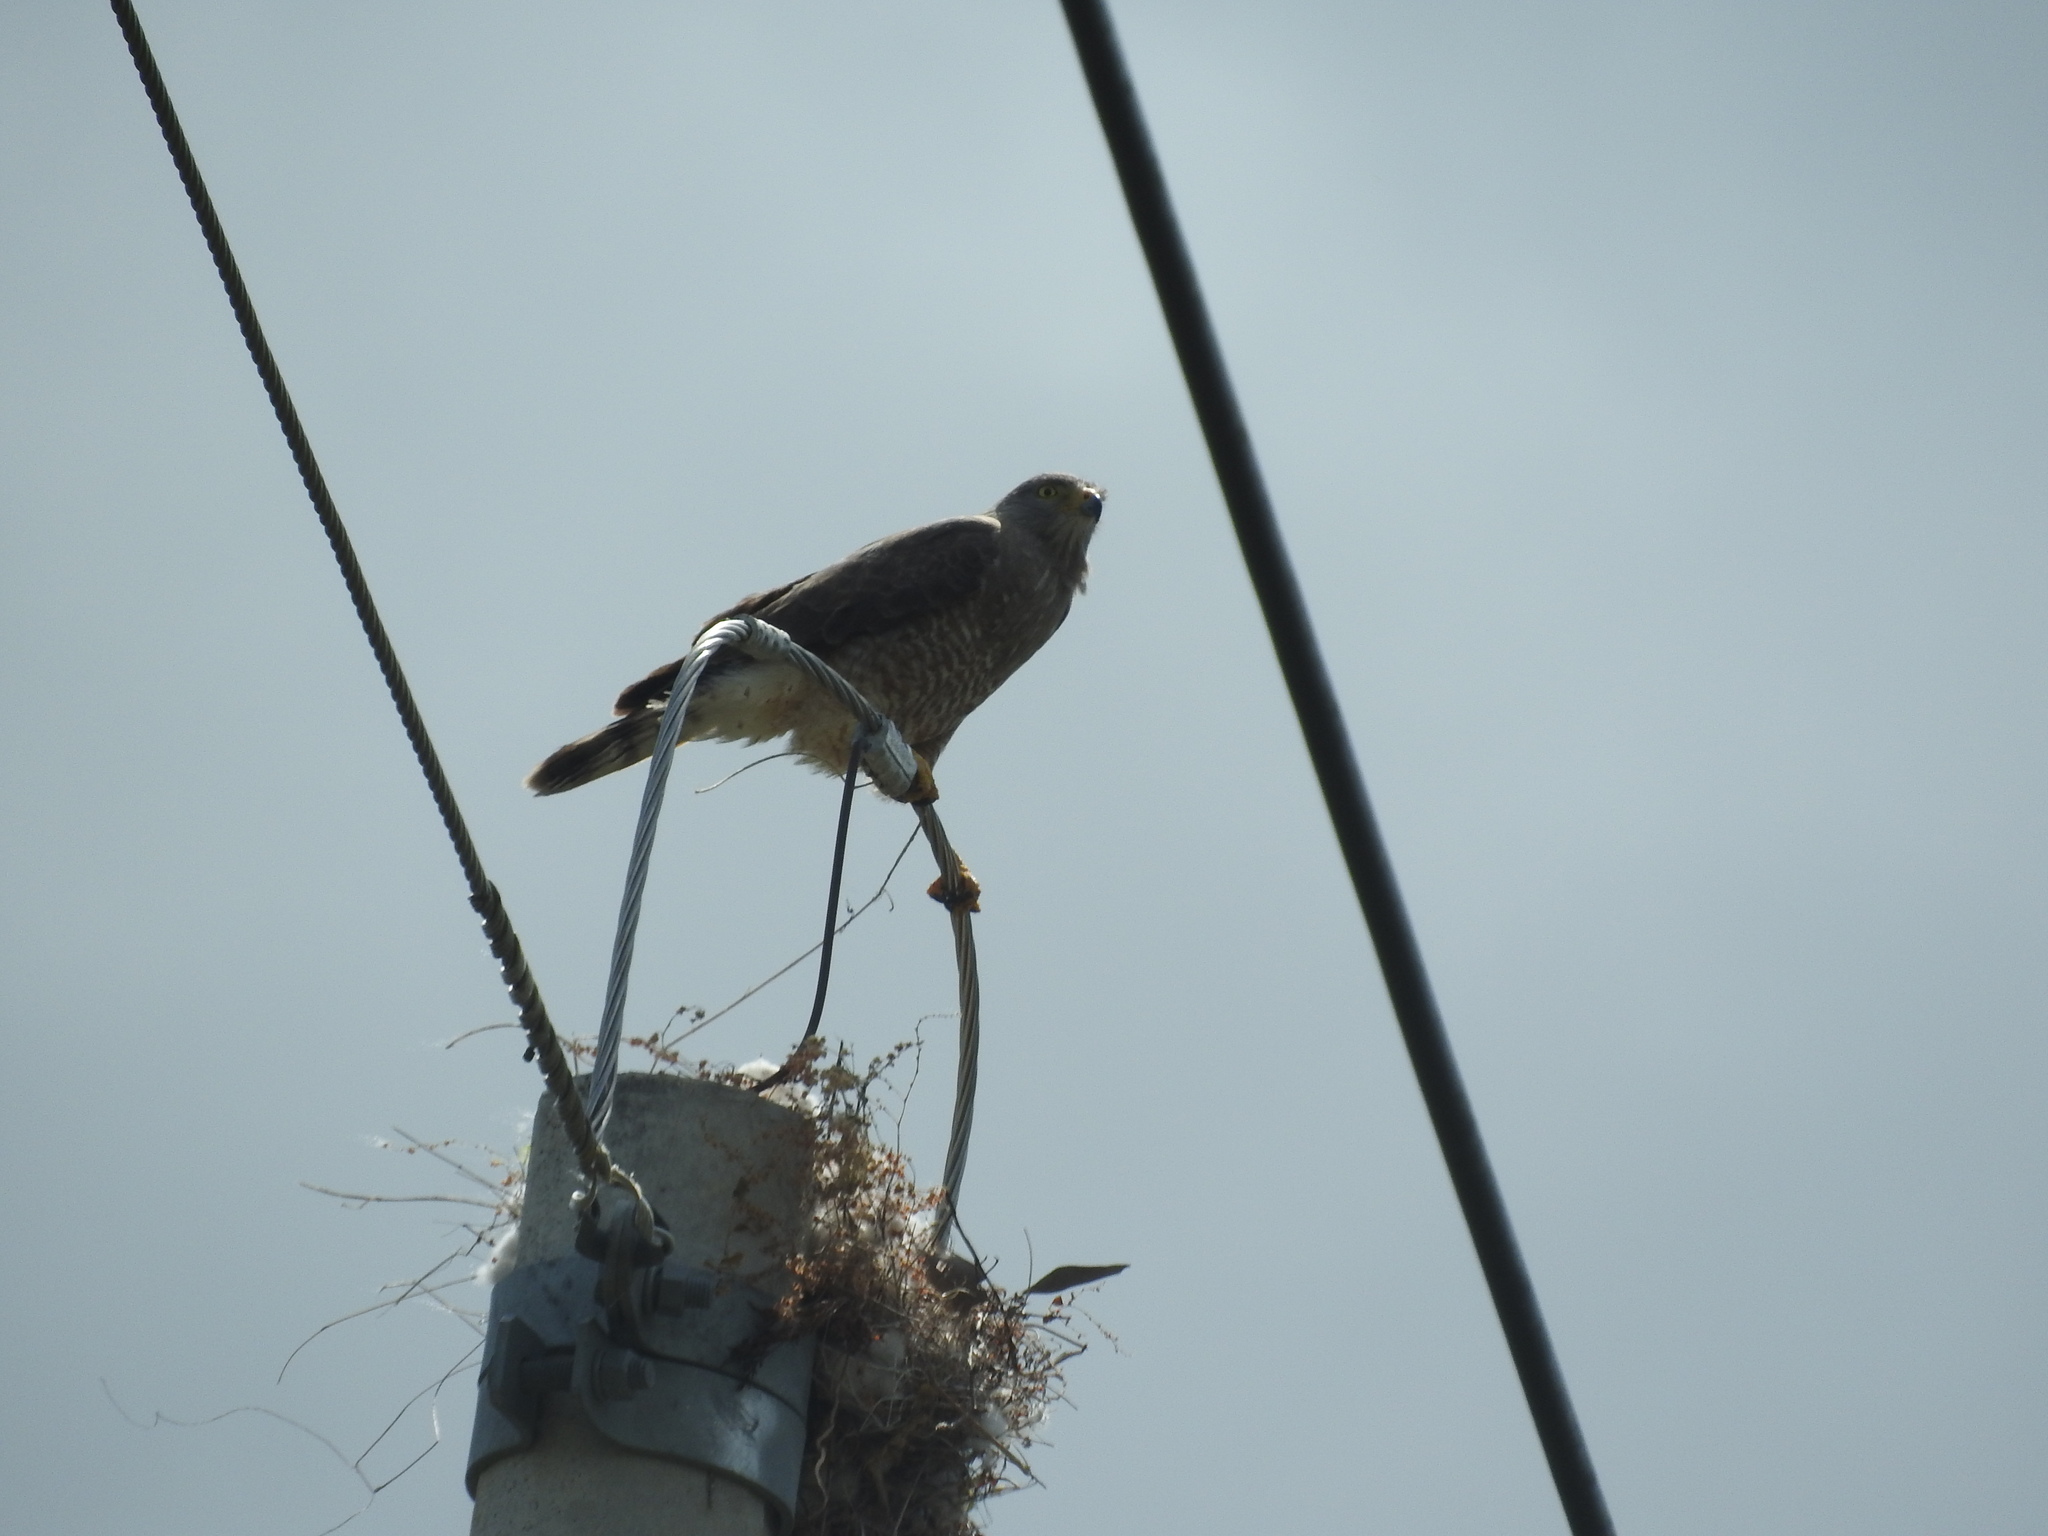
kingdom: Animalia
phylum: Chordata
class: Aves
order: Accipitriformes
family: Accipitridae
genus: Rupornis
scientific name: Rupornis magnirostris
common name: Roadside hawk
